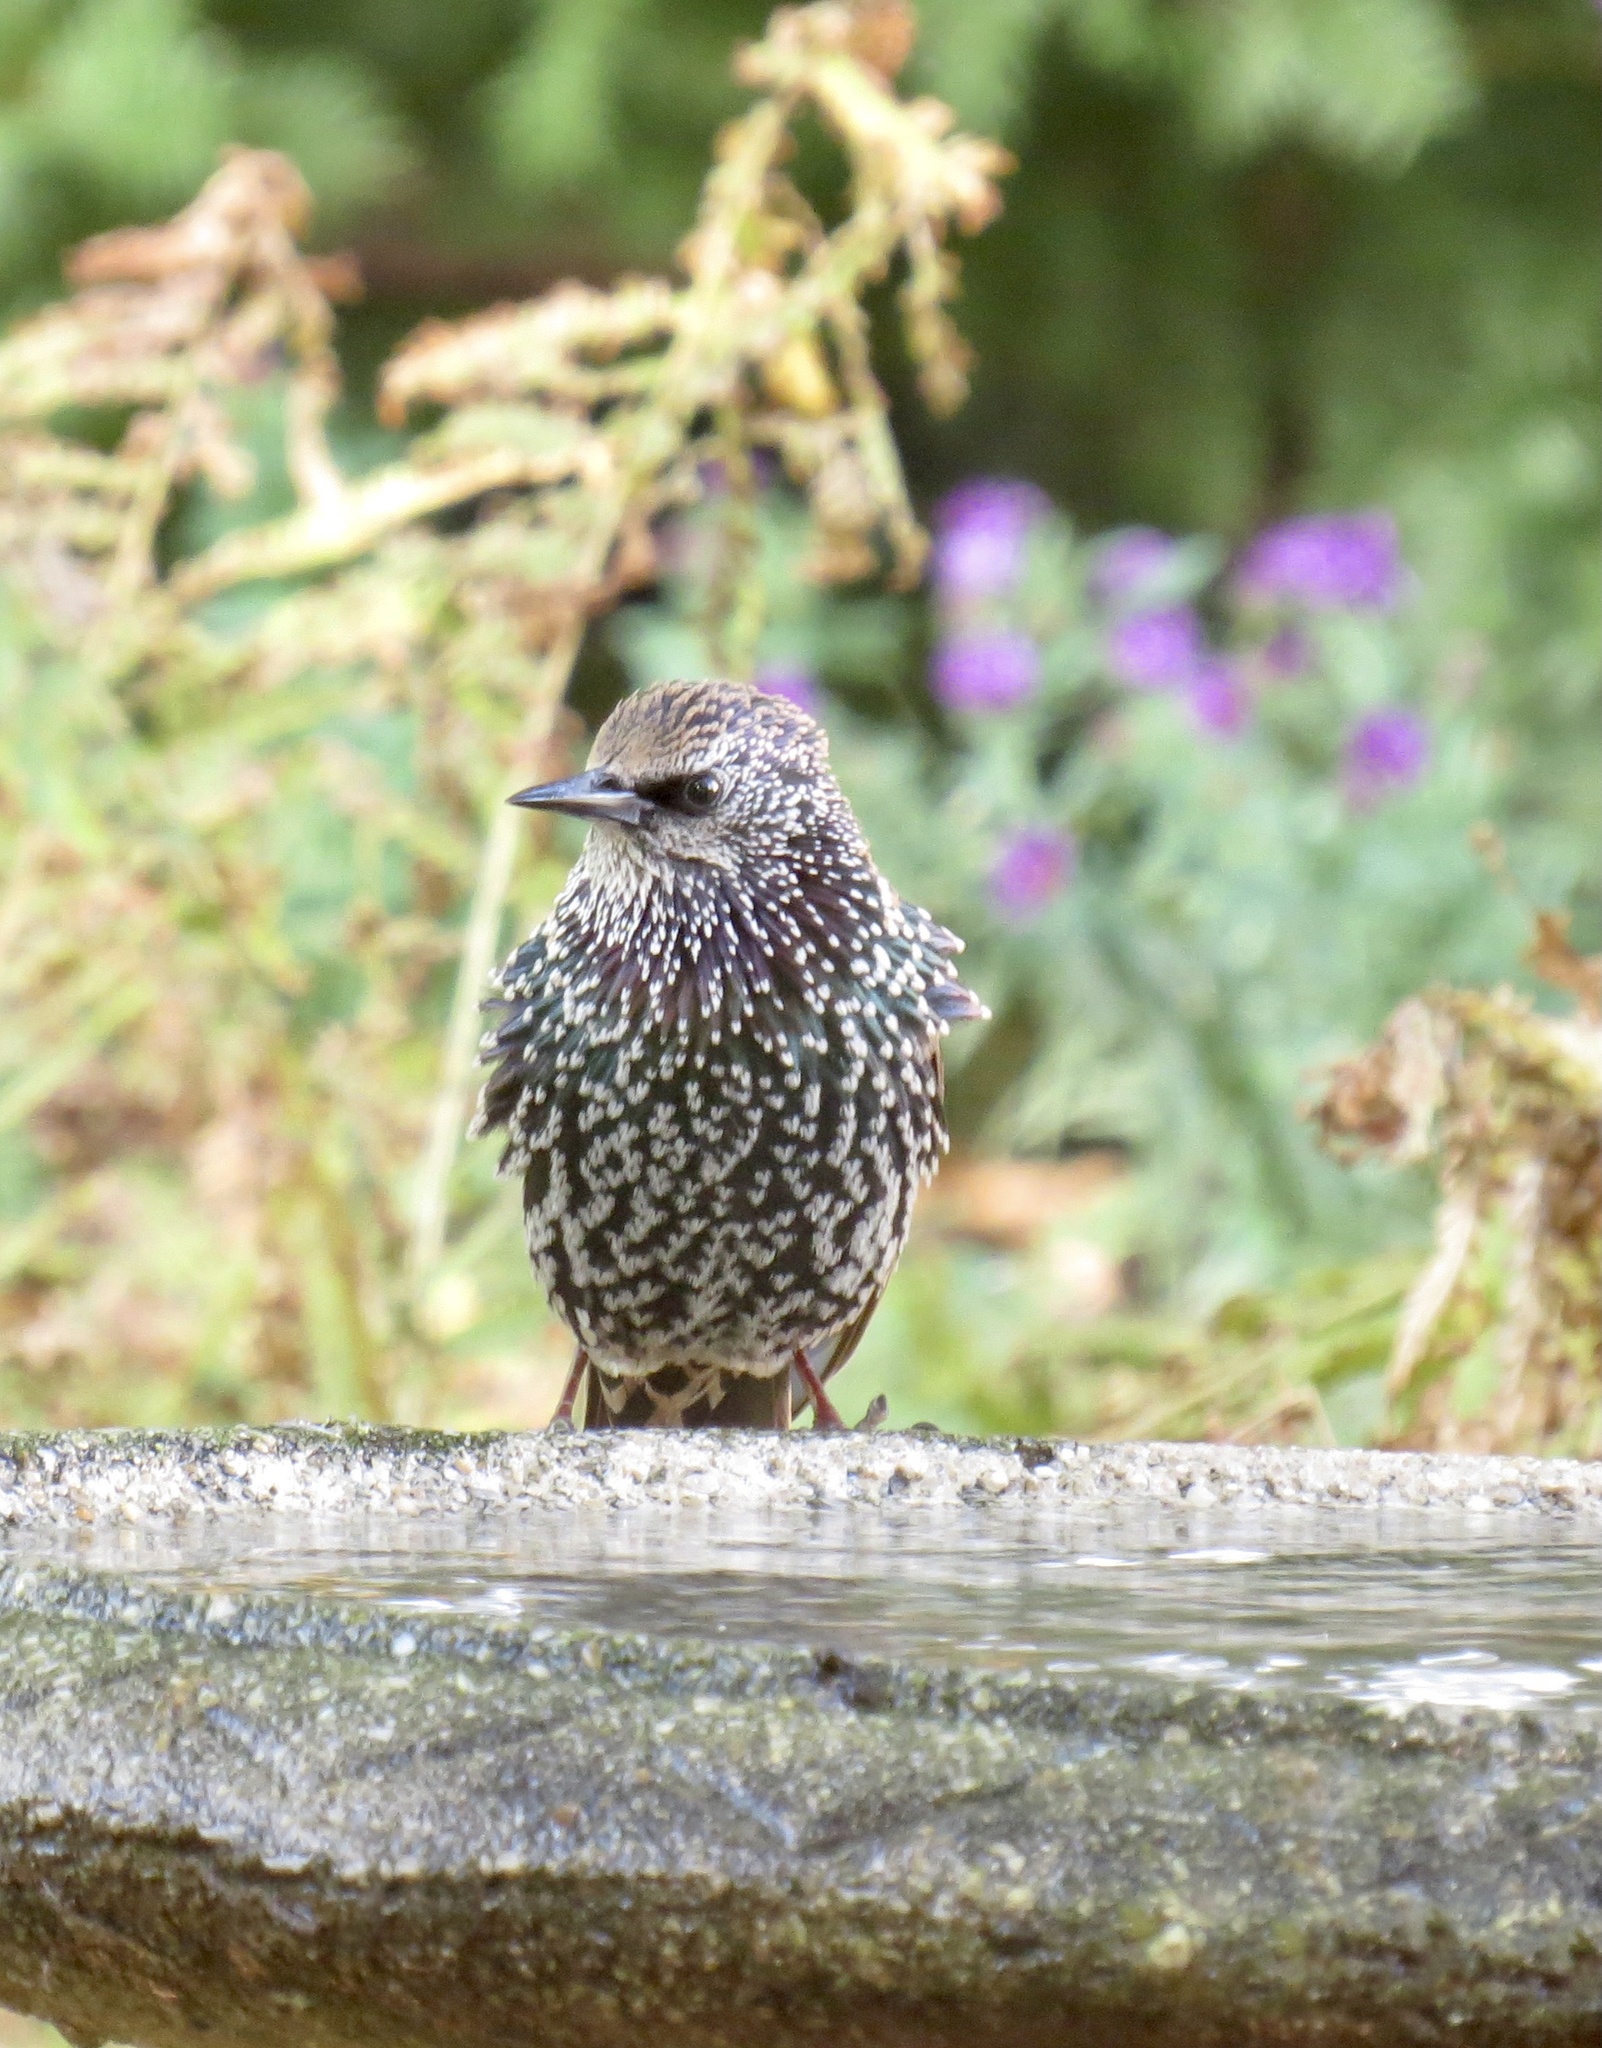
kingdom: Animalia
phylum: Chordata
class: Aves
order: Passeriformes
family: Sturnidae
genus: Sturnus
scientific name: Sturnus vulgaris
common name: Common starling
